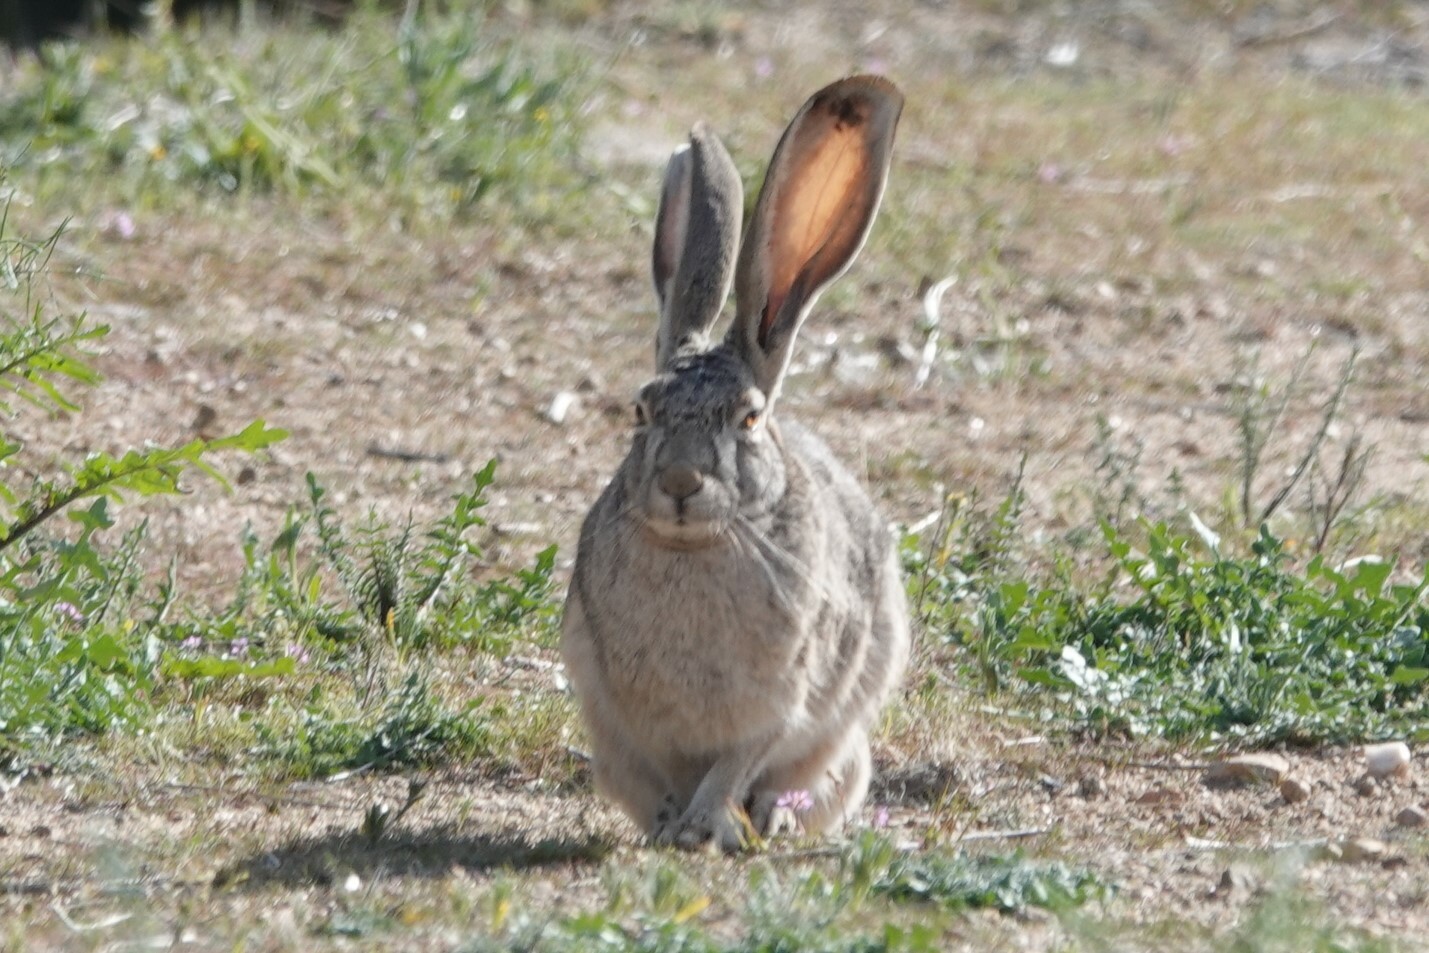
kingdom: Animalia
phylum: Chordata
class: Mammalia
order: Lagomorpha
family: Leporidae
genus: Lepus
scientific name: Lepus californicus
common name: Black-tailed jackrabbit
